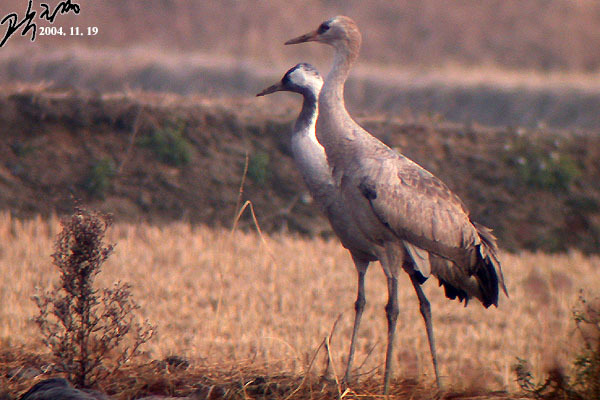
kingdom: Animalia
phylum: Chordata
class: Aves
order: Gruiformes
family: Gruidae
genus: Grus
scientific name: Grus grus
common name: Common crane
